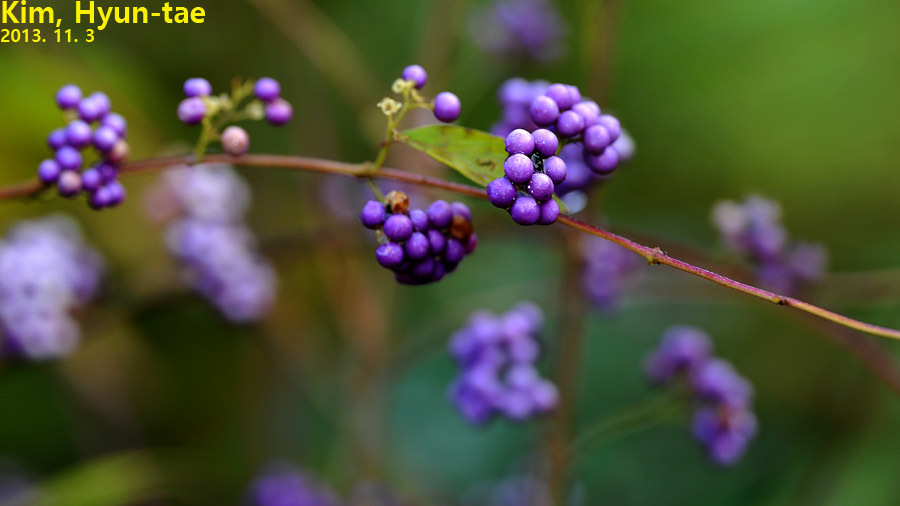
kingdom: Plantae
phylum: Tracheophyta
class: Magnoliopsida
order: Lamiales
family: Lamiaceae
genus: Callicarpa
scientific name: Callicarpa dichotoma
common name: Purple beauty-berry
